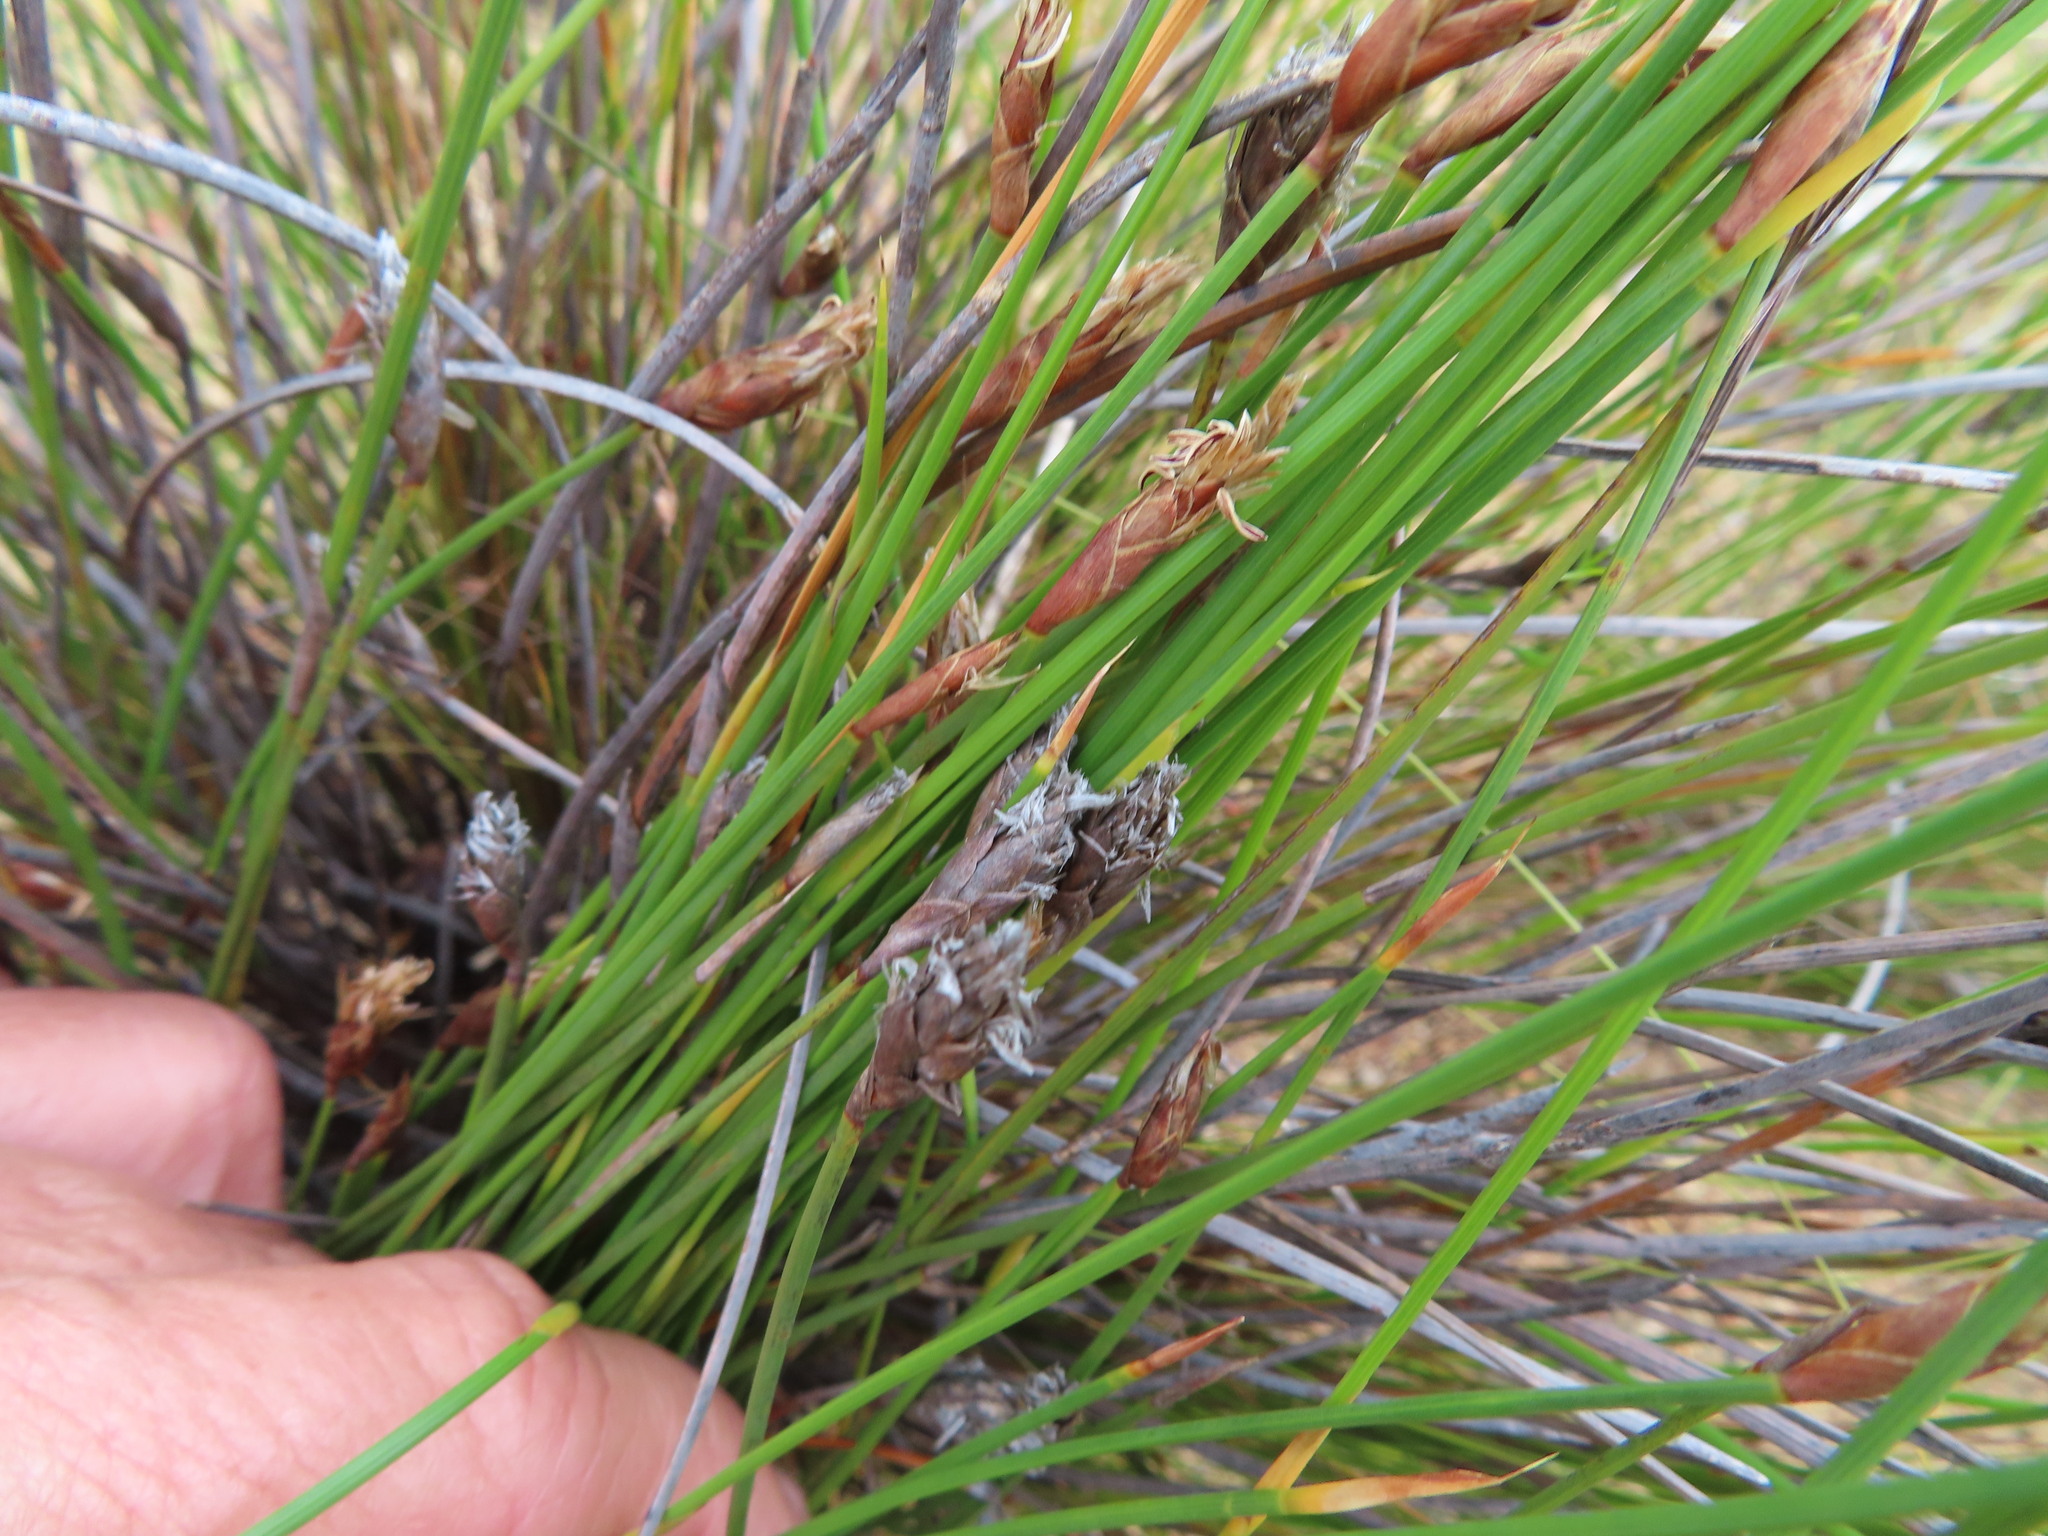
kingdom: Plantae
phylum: Tracheophyta
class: Liliopsida
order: Poales
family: Restionaceae
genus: Hypodiscus
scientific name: Hypodiscus willdenowia
